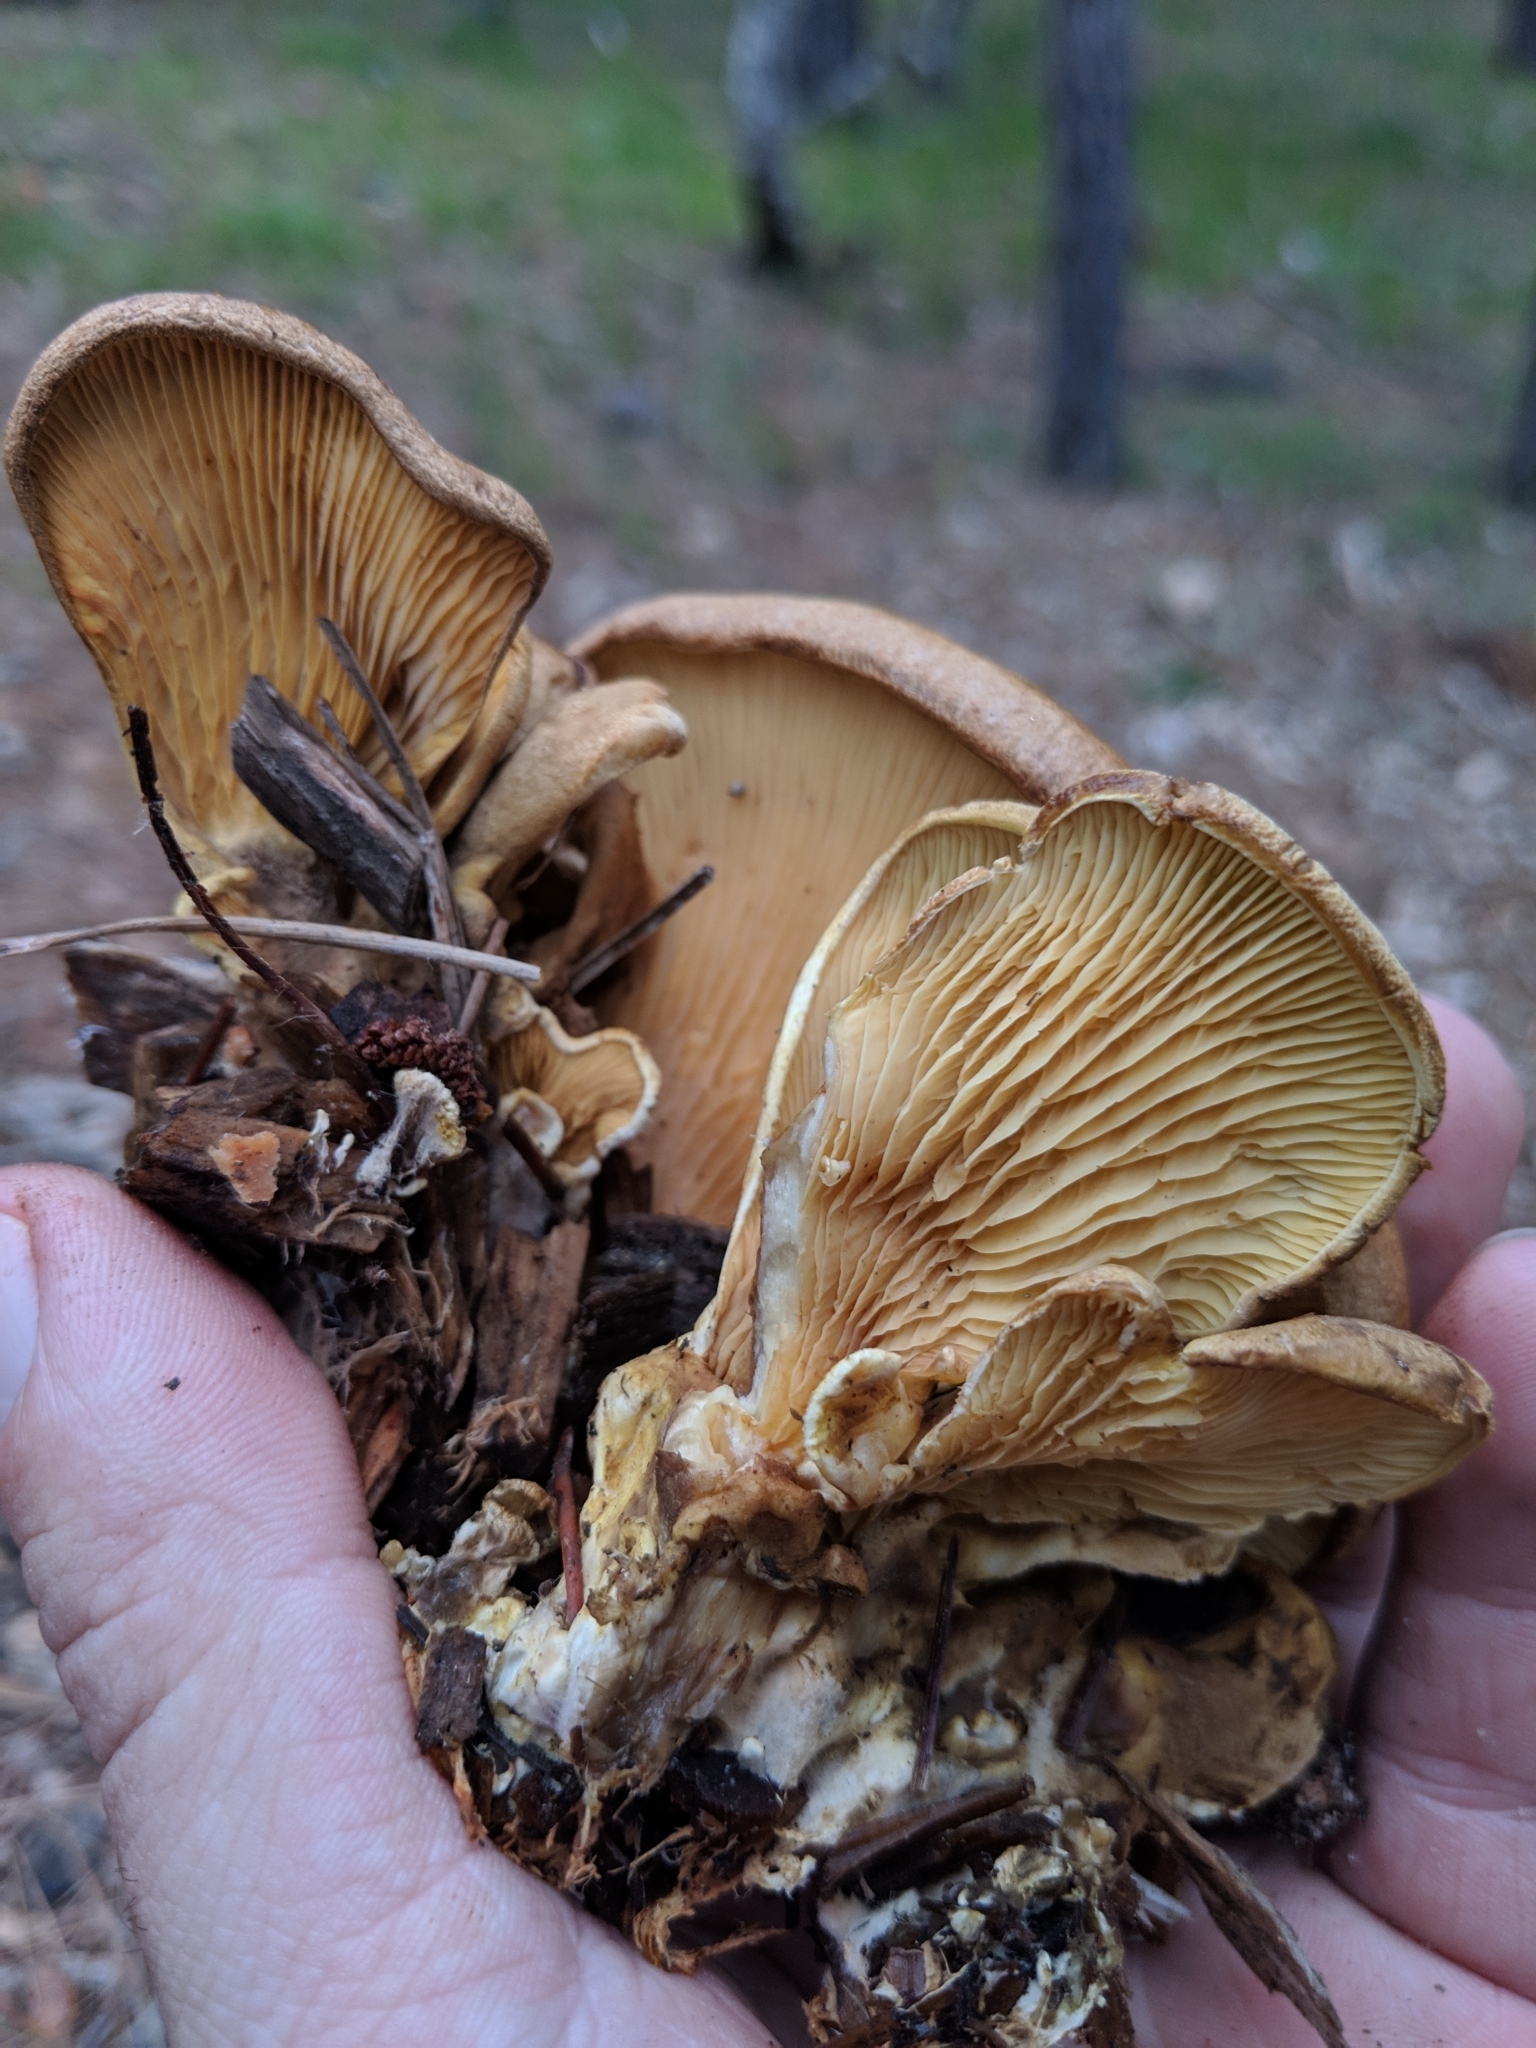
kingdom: Fungi
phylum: Basidiomycota
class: Agaricomycetes
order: Boletales
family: Tapinellaceae
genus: Tapinella
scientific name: Tapinella panuoides
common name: Oyster rollrim
